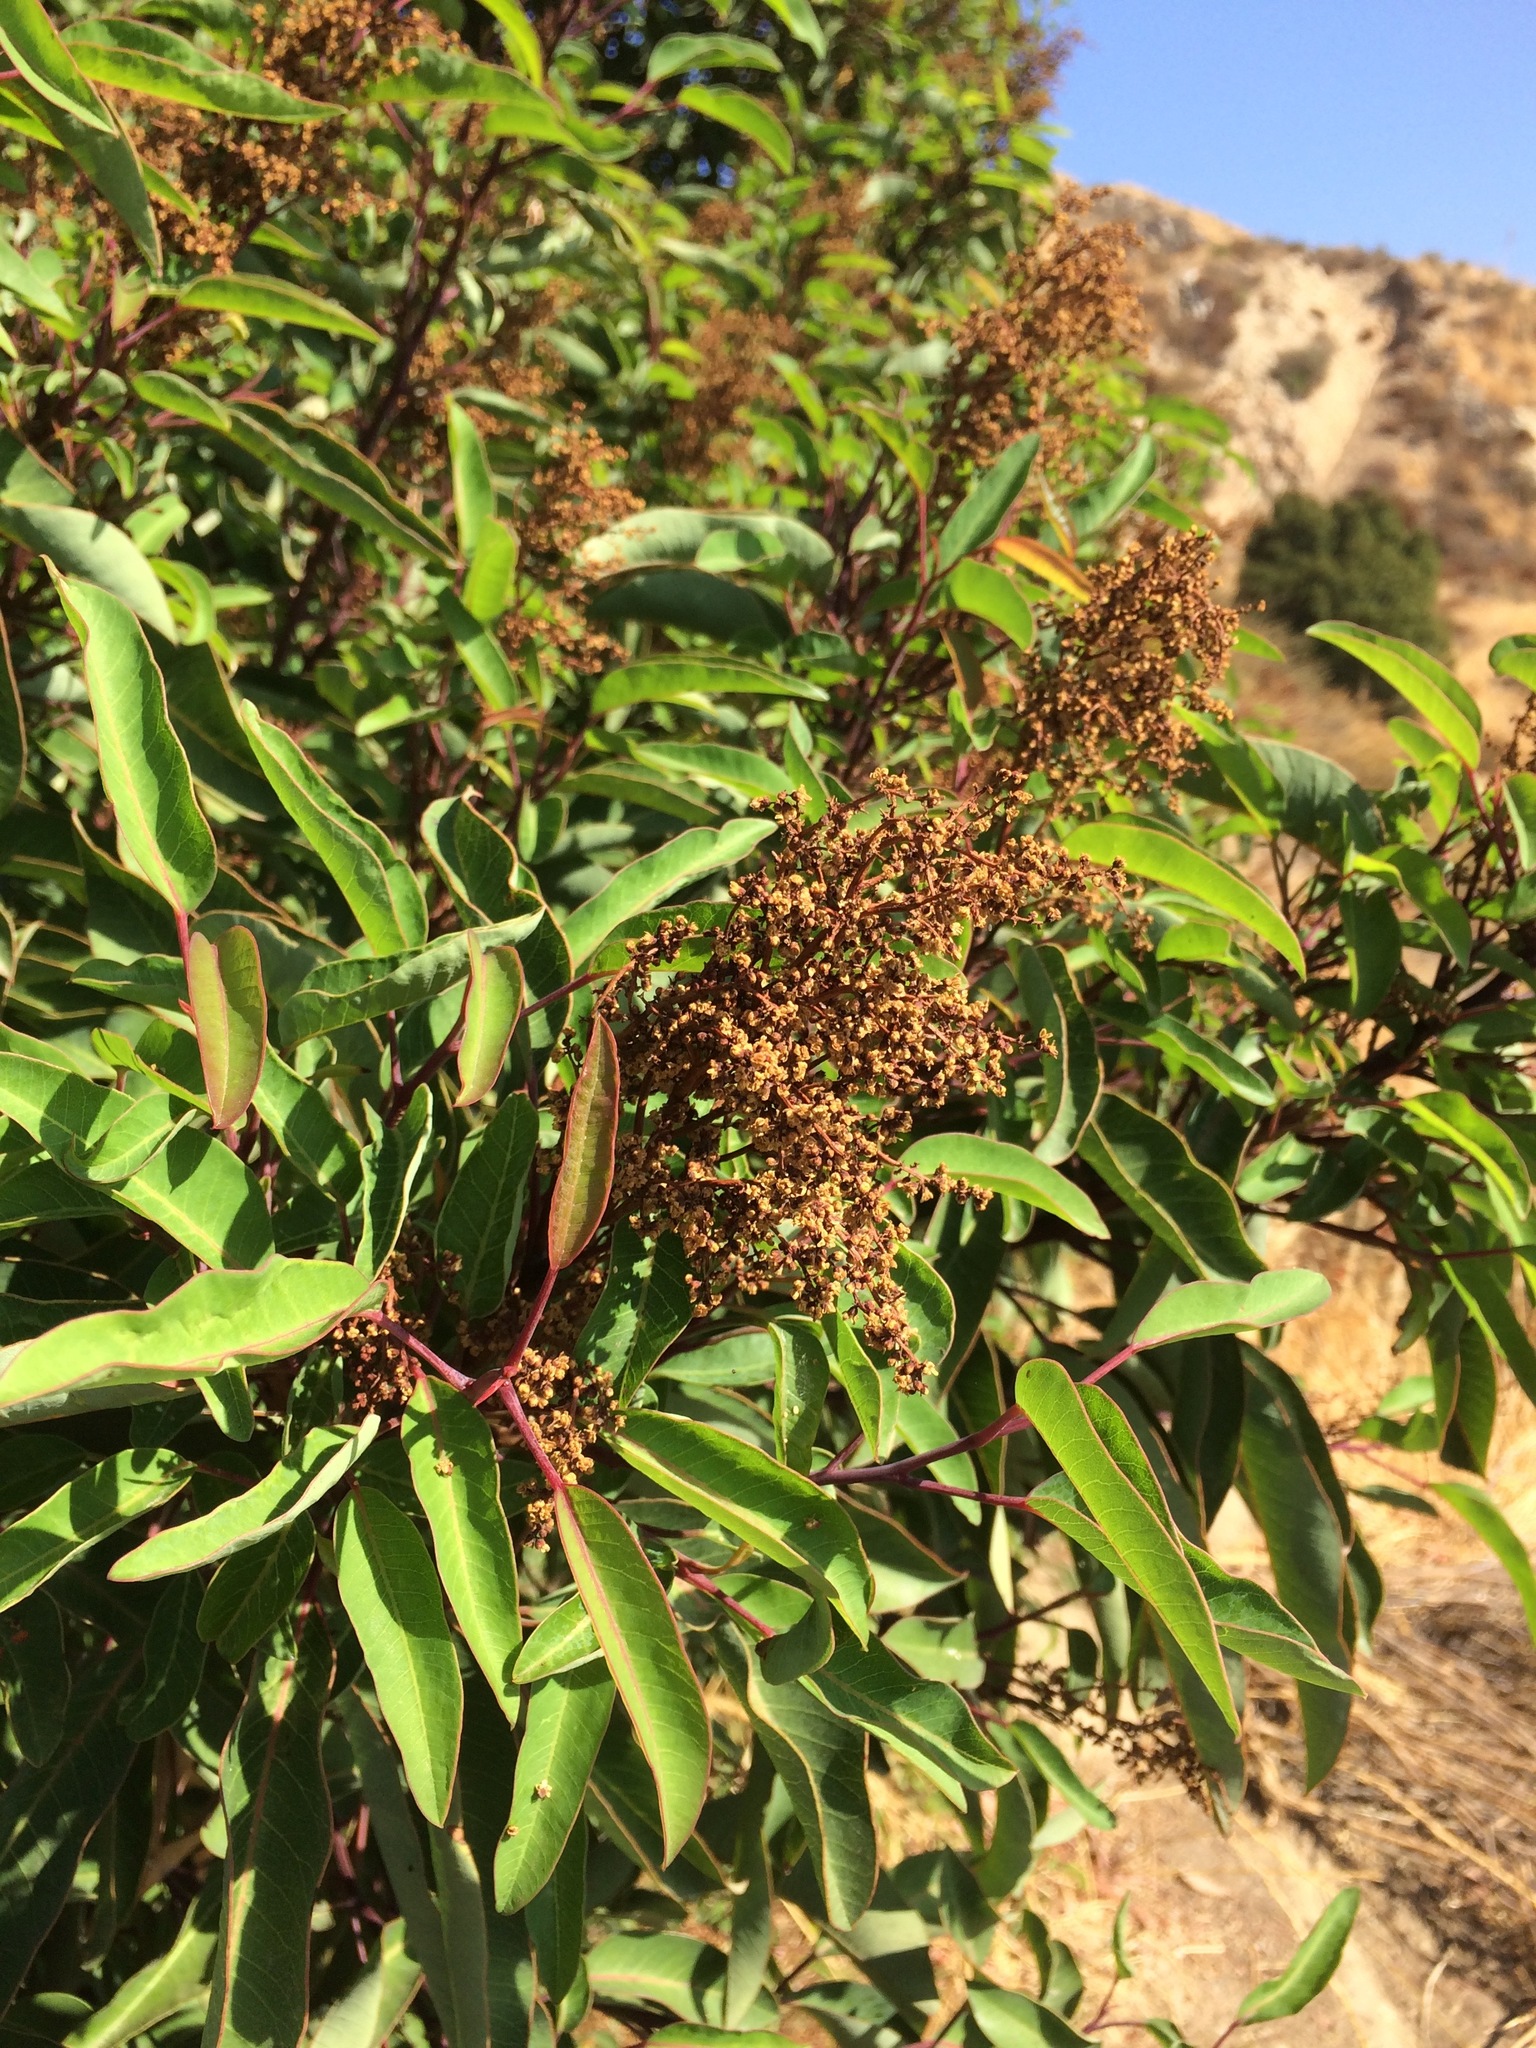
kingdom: Plantae
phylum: Tracheophyta
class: Magnoliopsida
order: Sapindales
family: Anacardiaceae
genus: Malosma
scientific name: Malosma laurina
